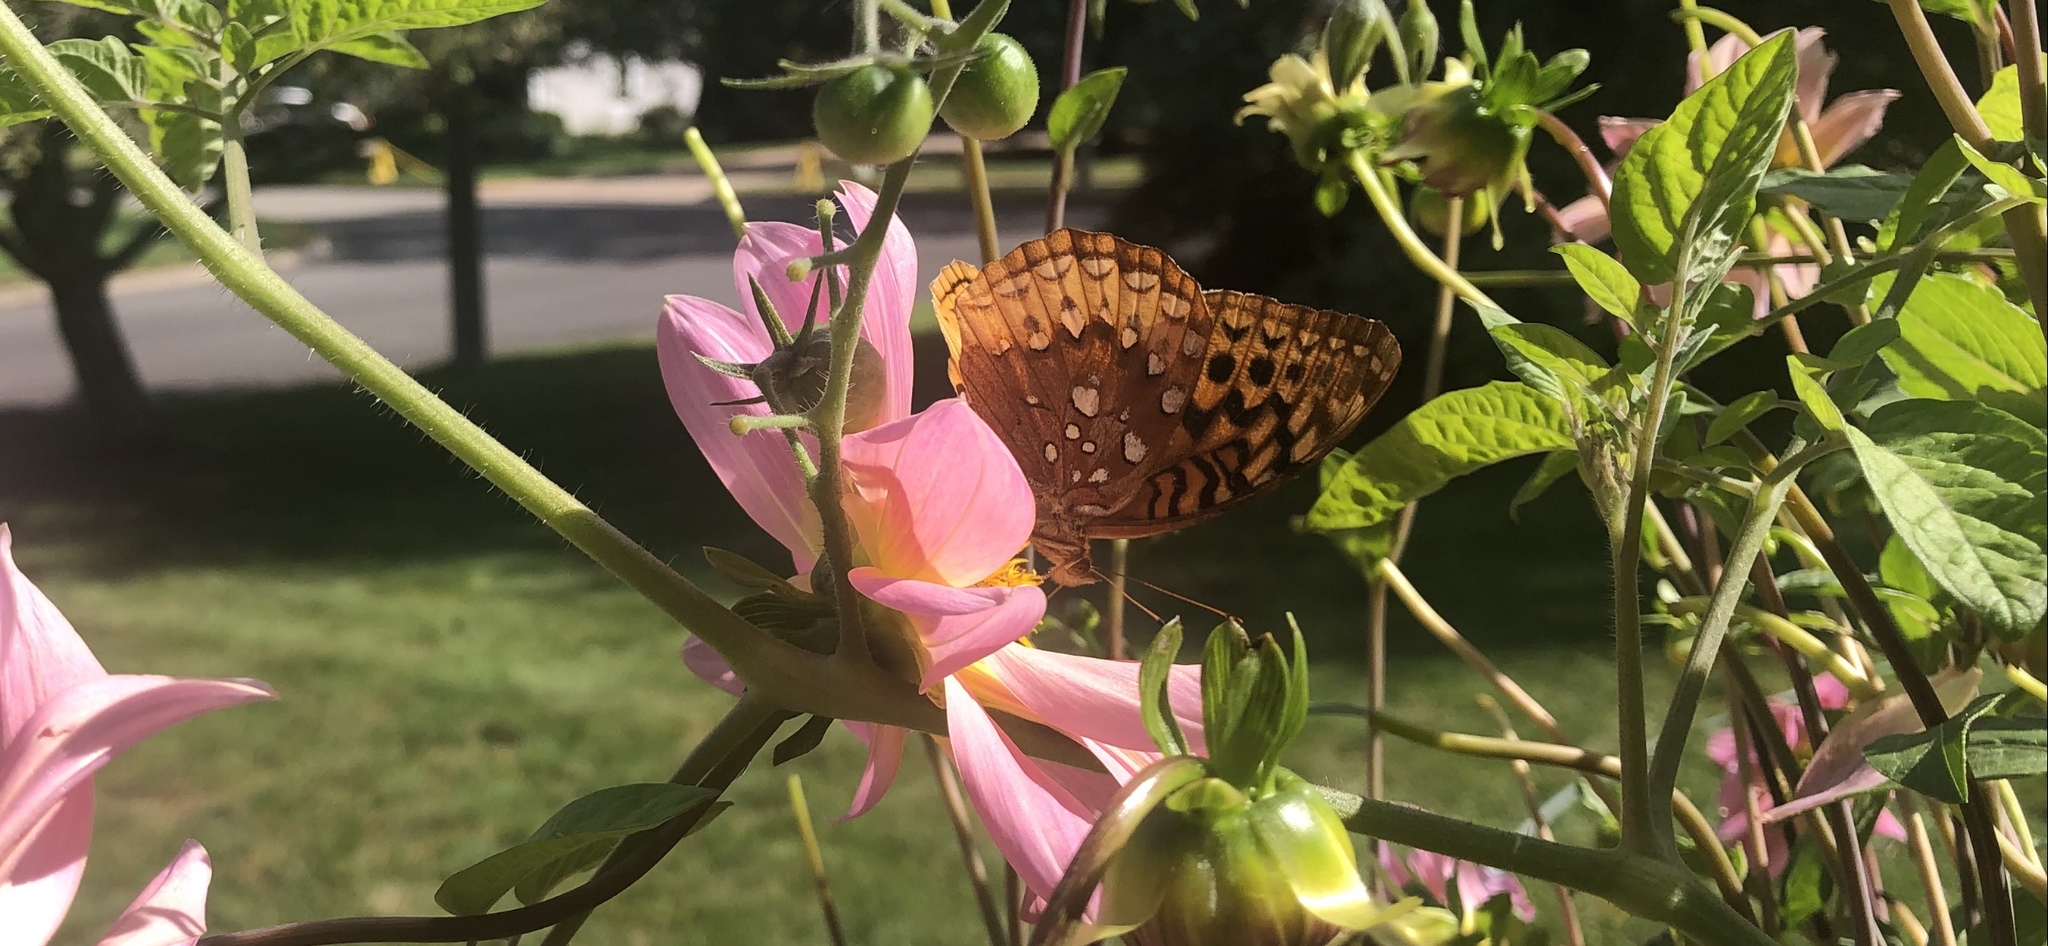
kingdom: Animalia
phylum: Arthropoda
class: Insecta
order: Lepidoptera
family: Nymphalidae
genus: Speyeria
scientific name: Speyeria cybele
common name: Great spangled fritillary
